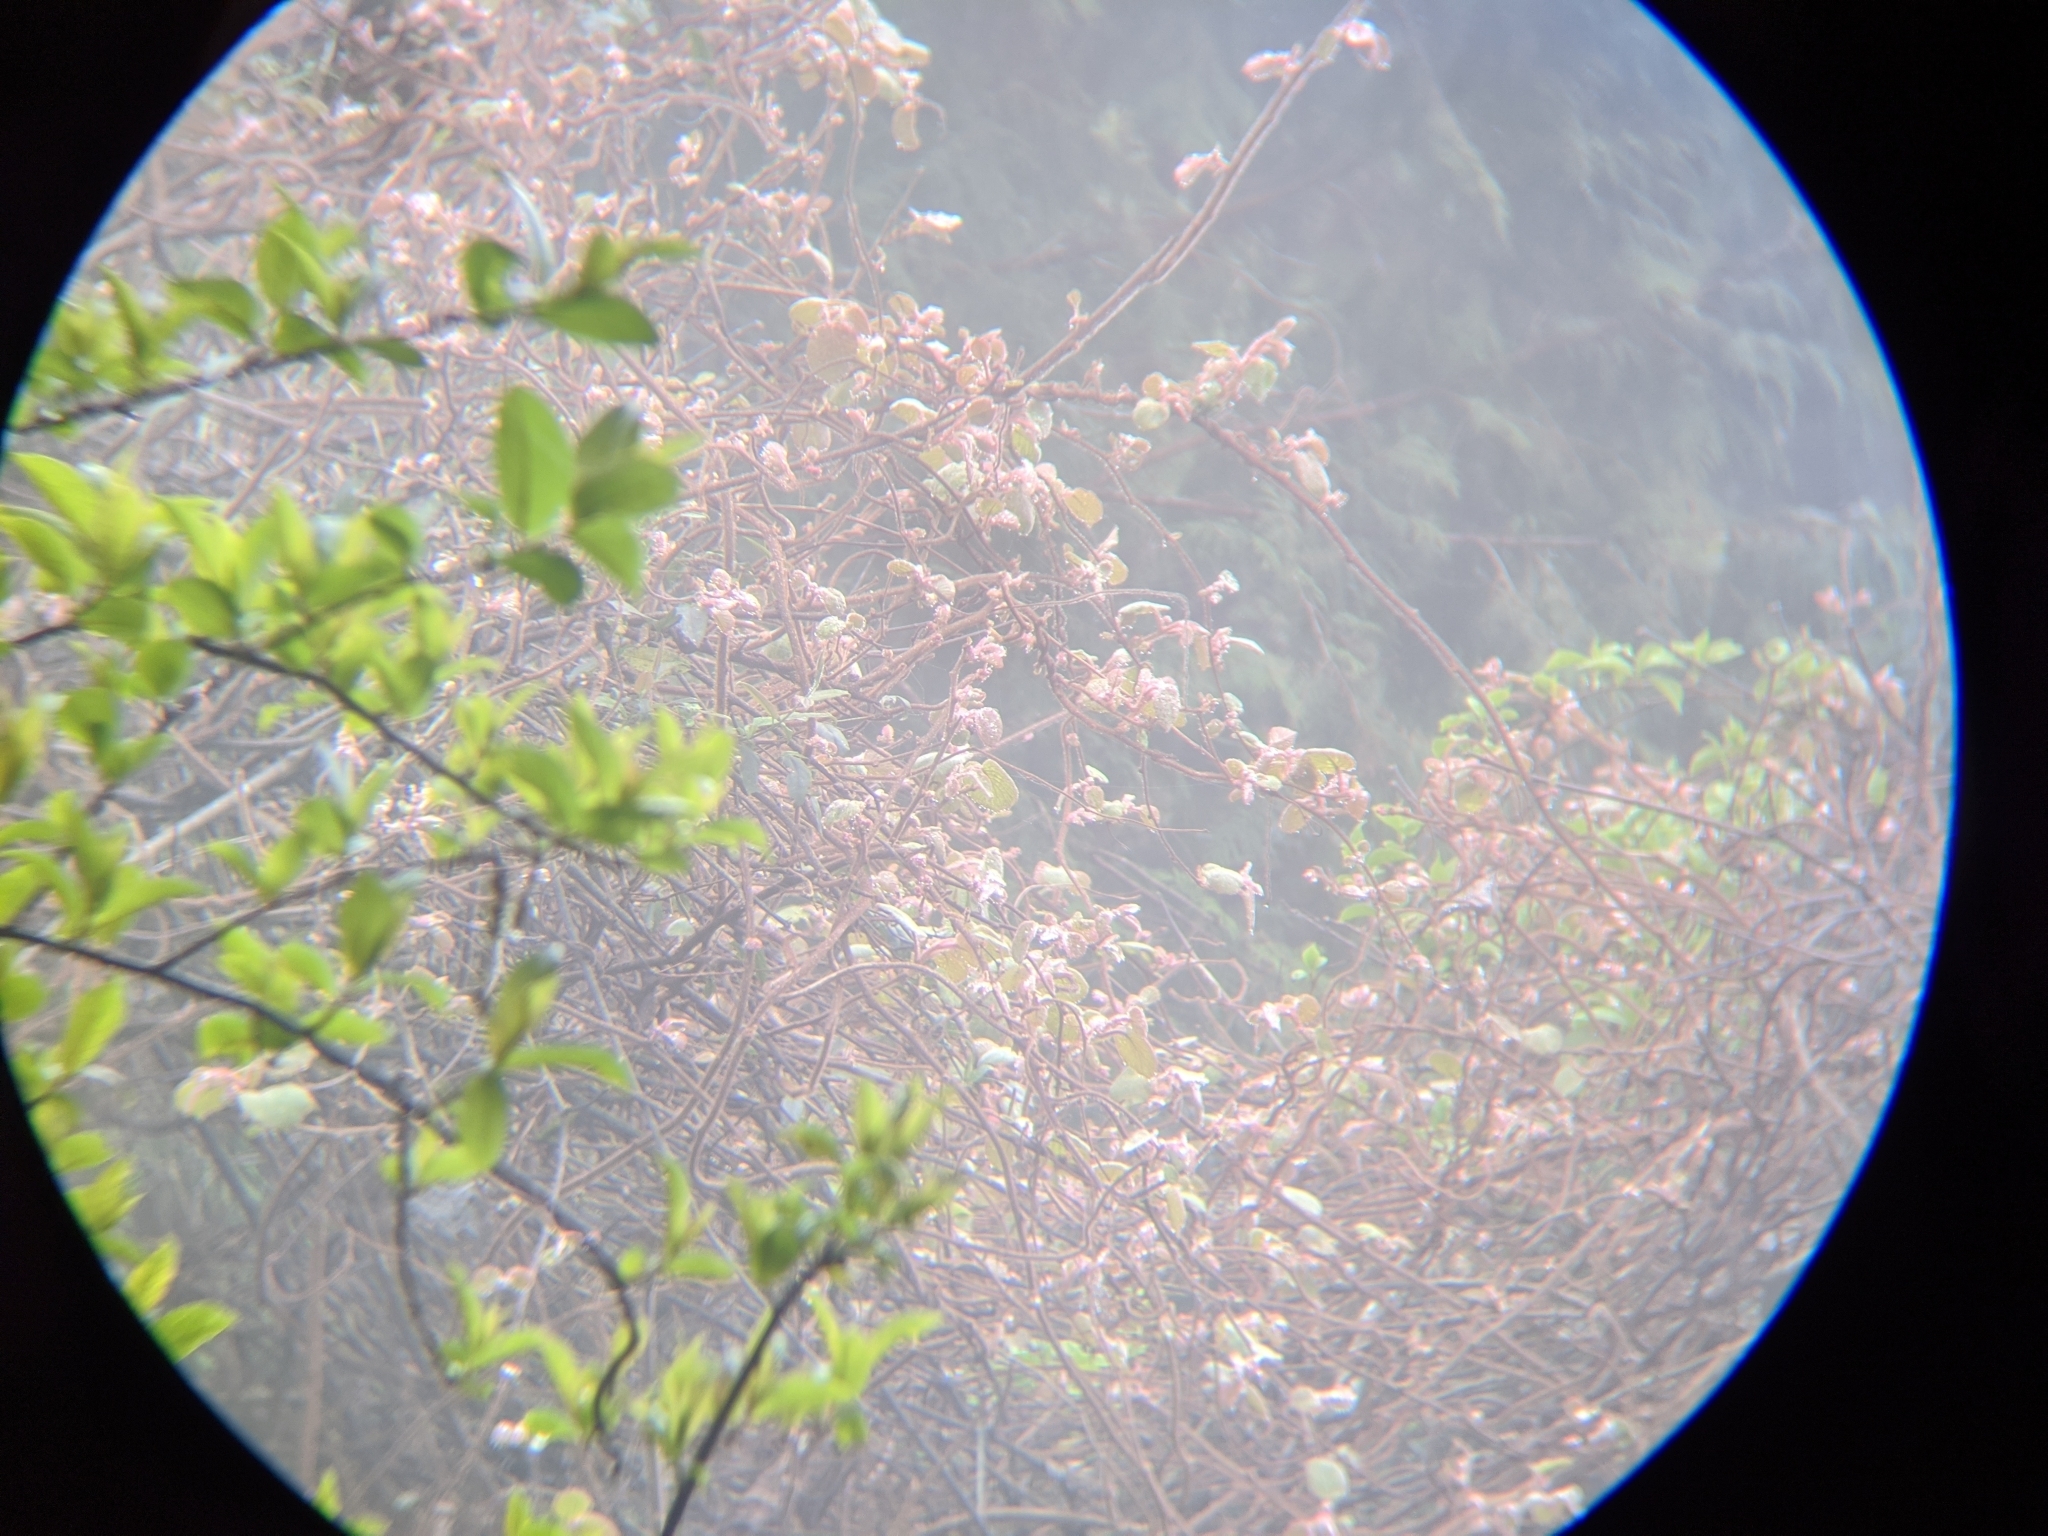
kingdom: Plantae
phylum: Tracheophyta
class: Magnoliopsida
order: Ericales
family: Actinidiaceae
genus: Actinidia
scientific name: Actinidia chinensis
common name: Kiwi
